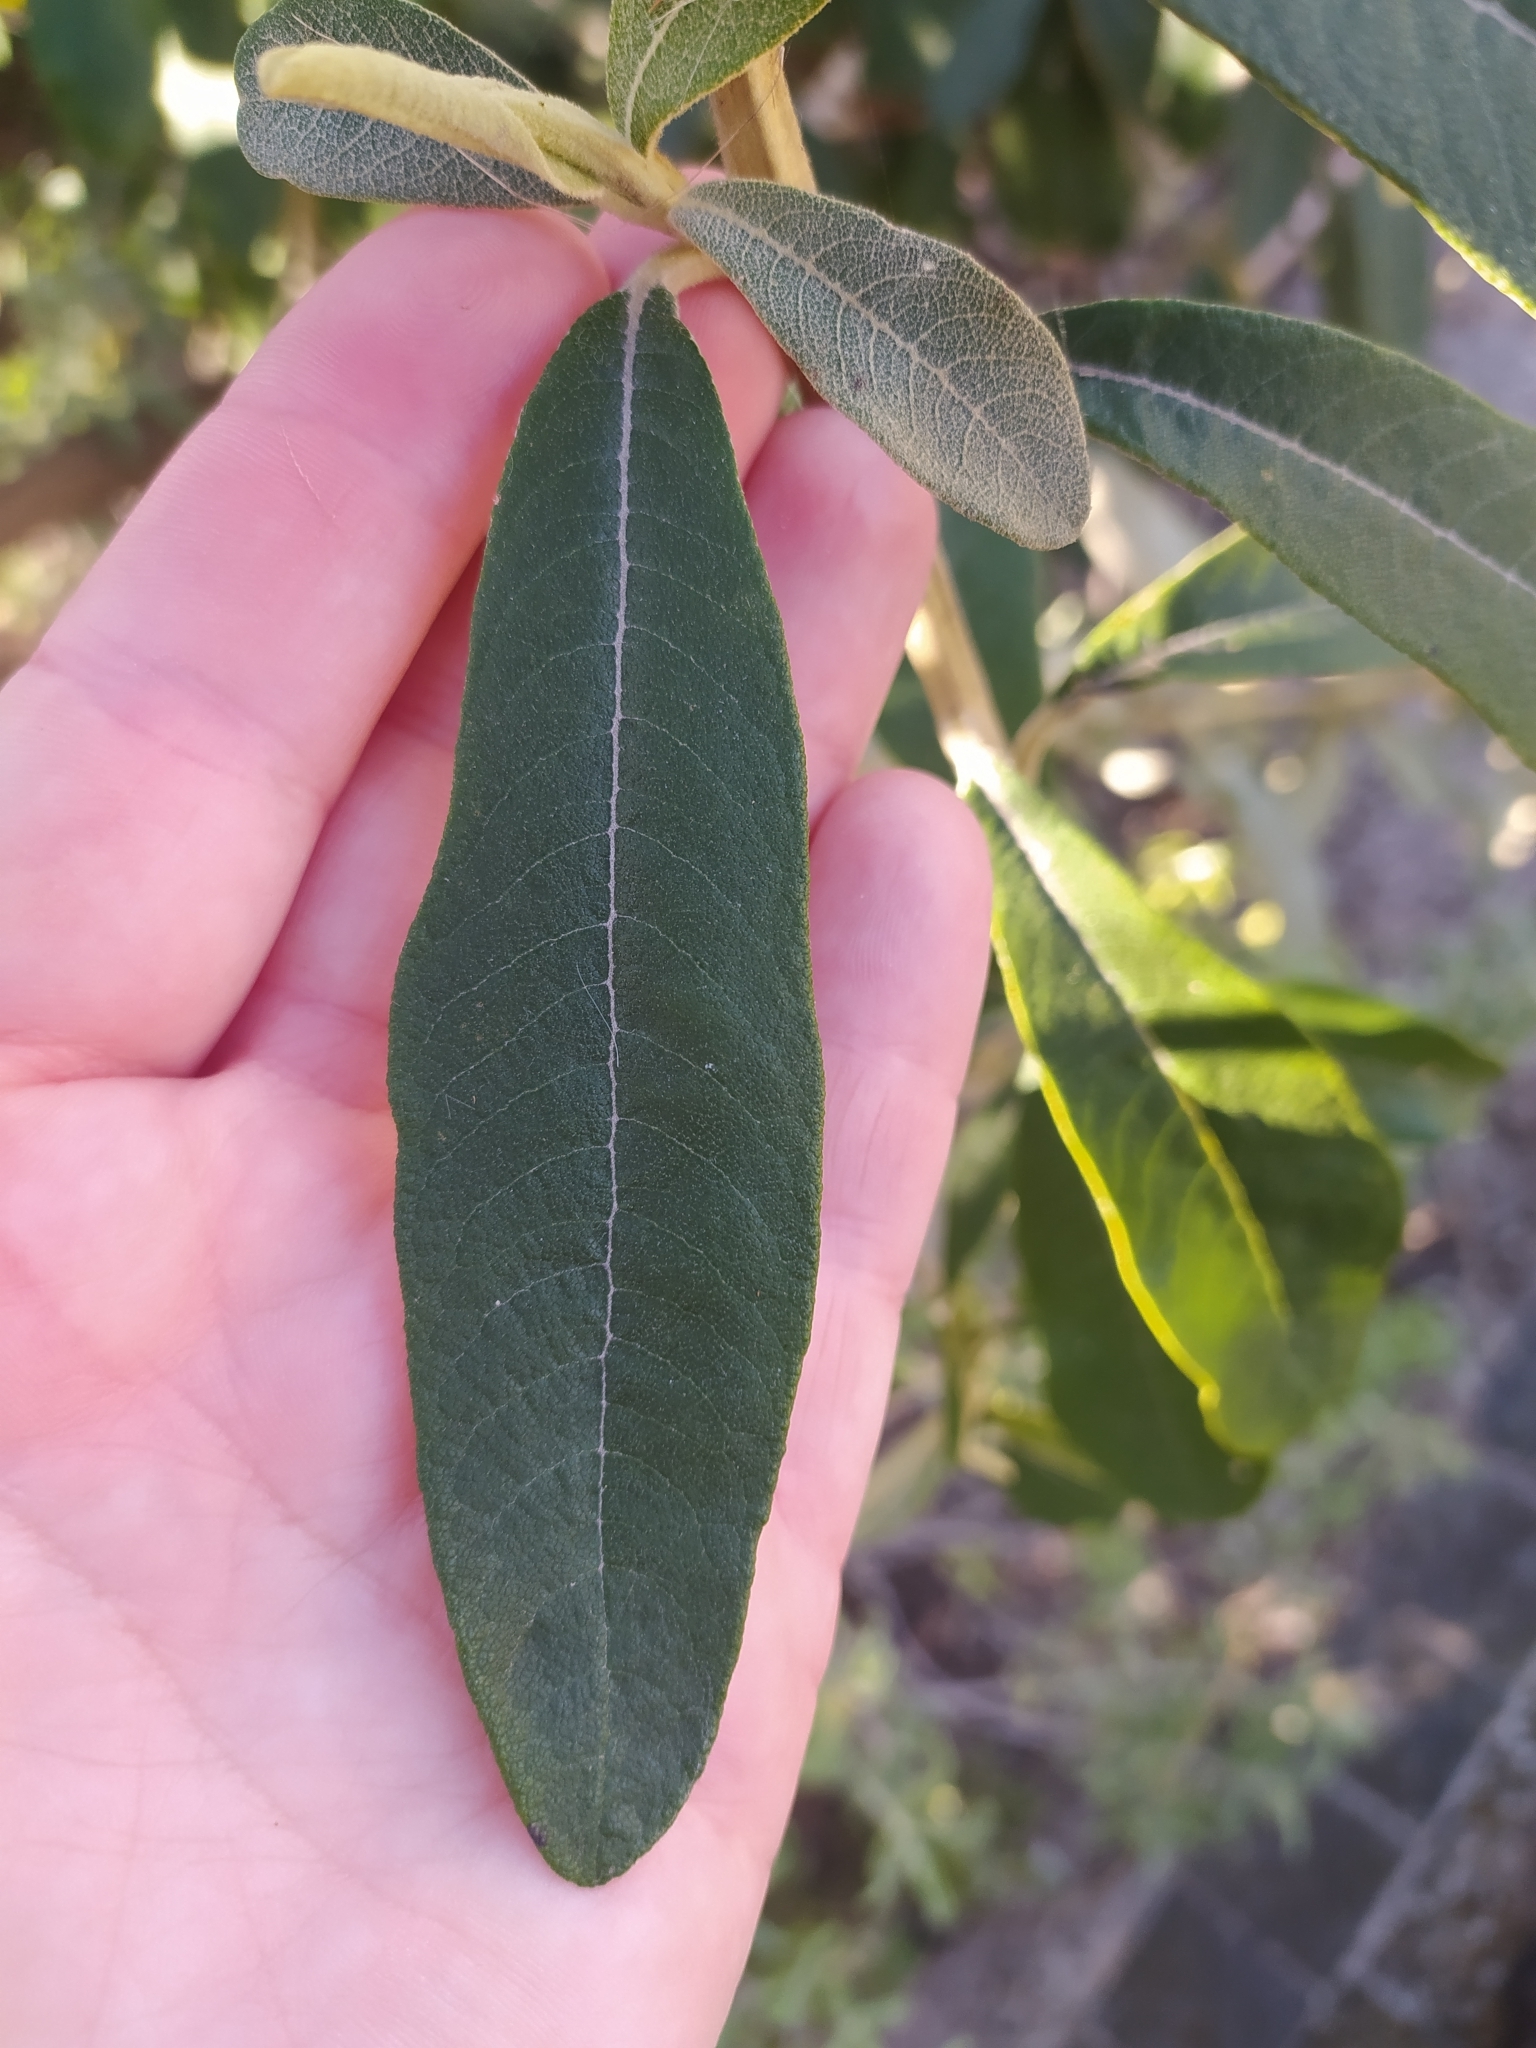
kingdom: Plantae
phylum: Tracheophyta
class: Magnoliopsida
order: Asterales
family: Asteraceae
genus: Tarchonanthus
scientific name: Tarchonanthus littoralis
